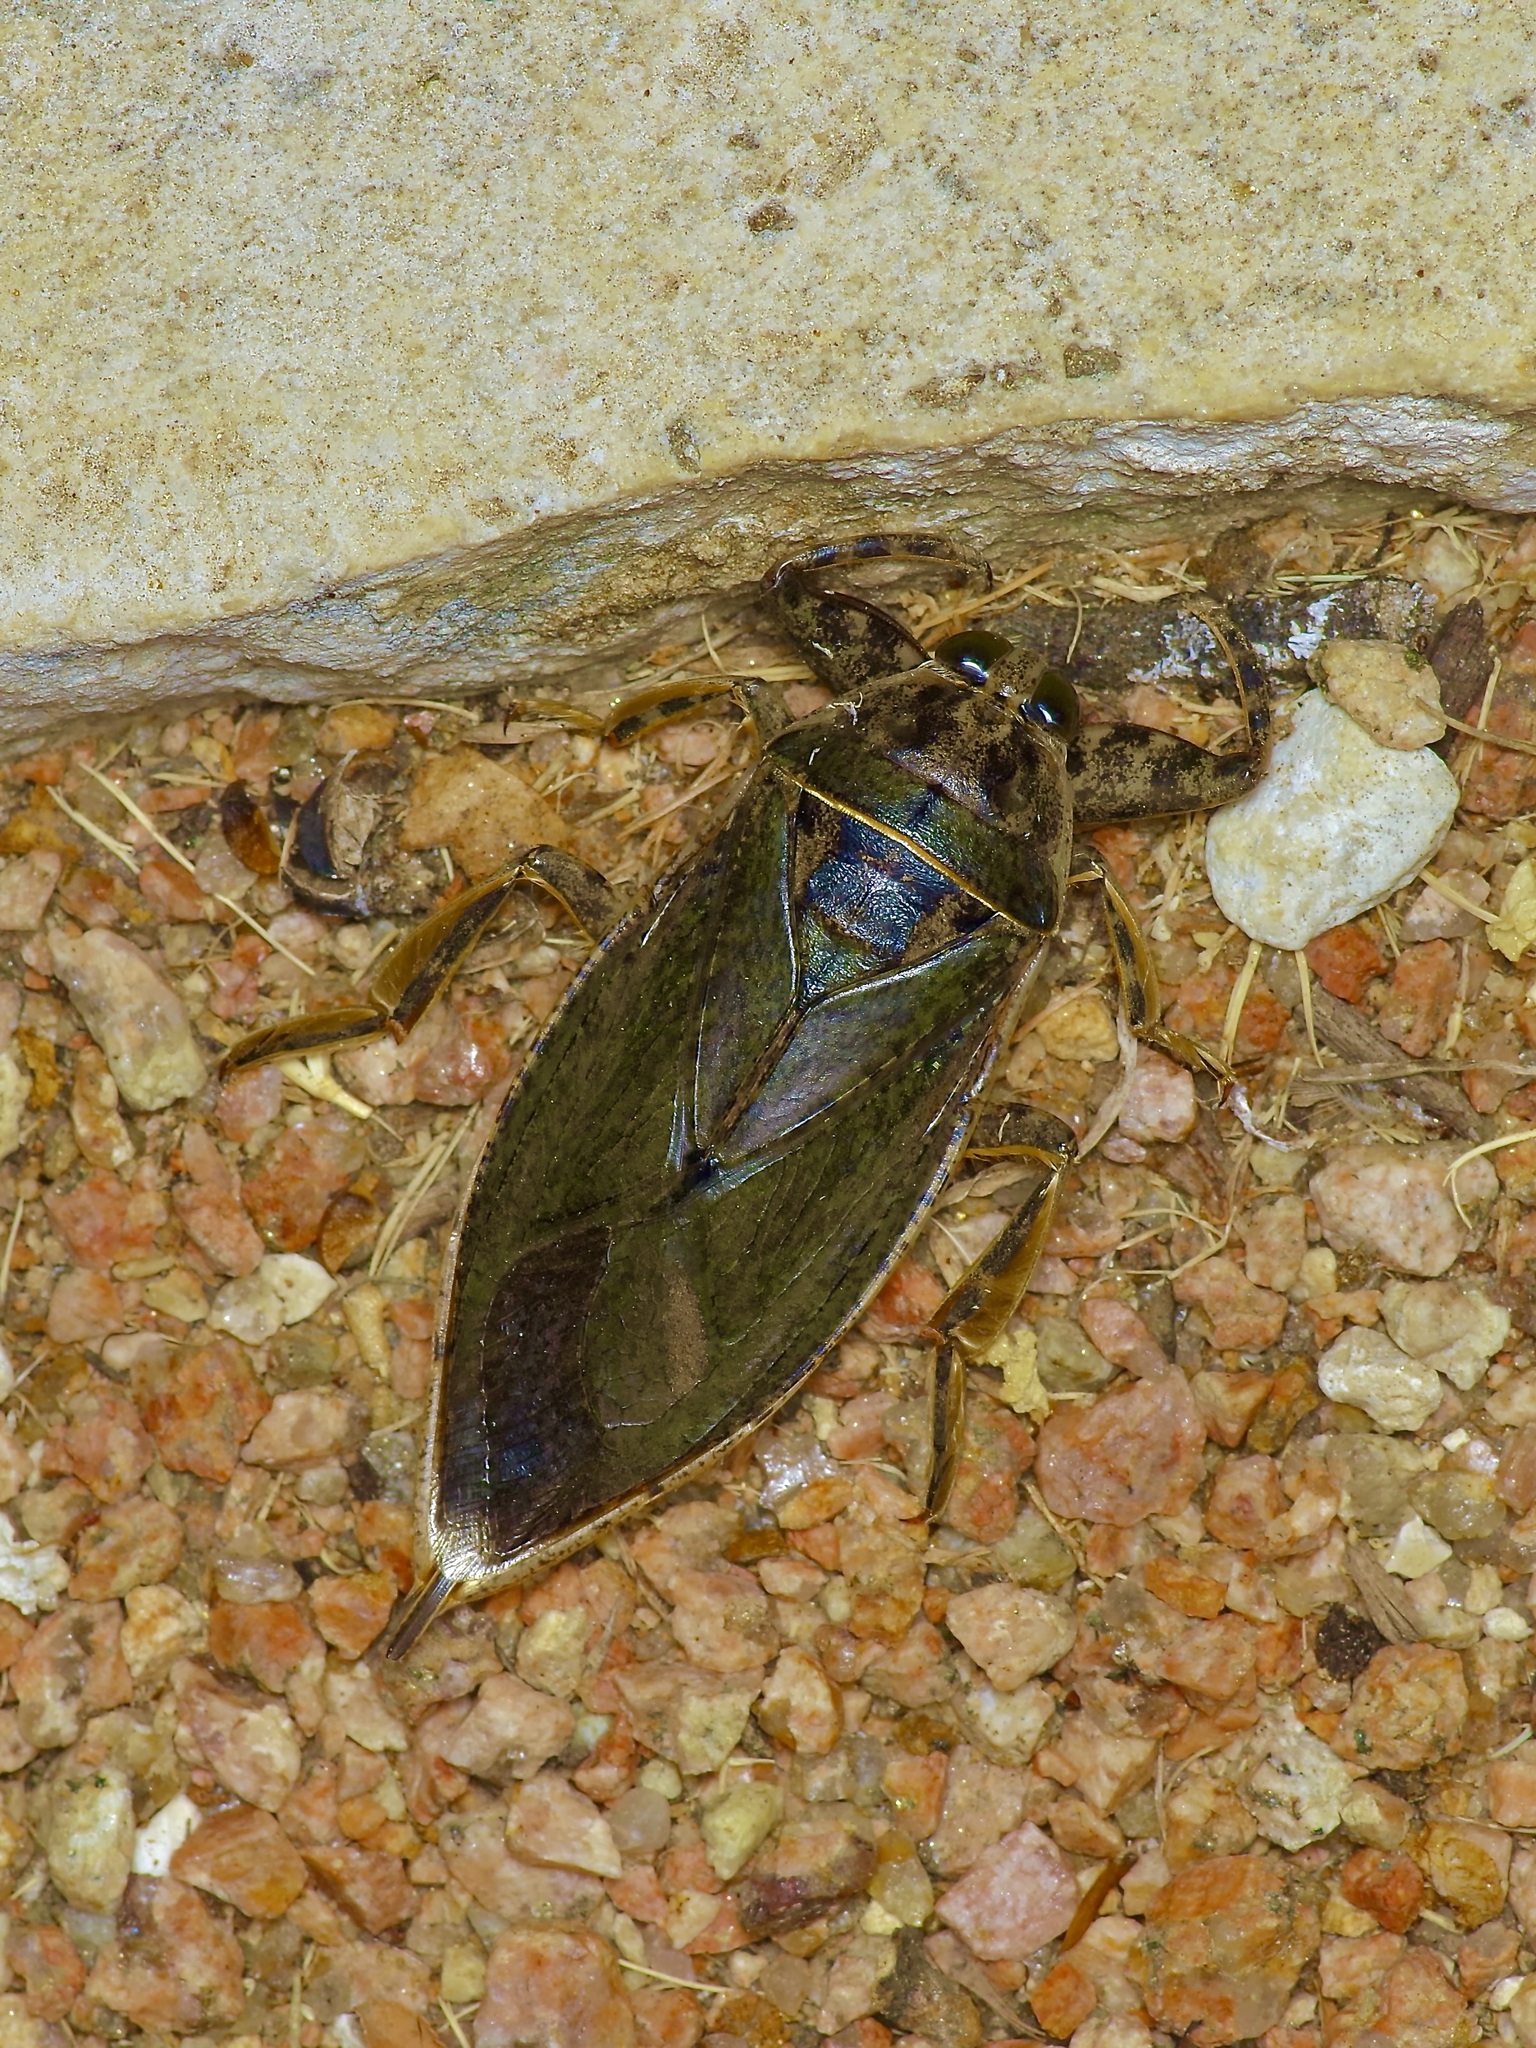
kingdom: Animalia
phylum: Arthropoda
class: Insecta
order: Hemiptera
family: Belostomatidae
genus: Lethocerus
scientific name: Lethocerus medius
